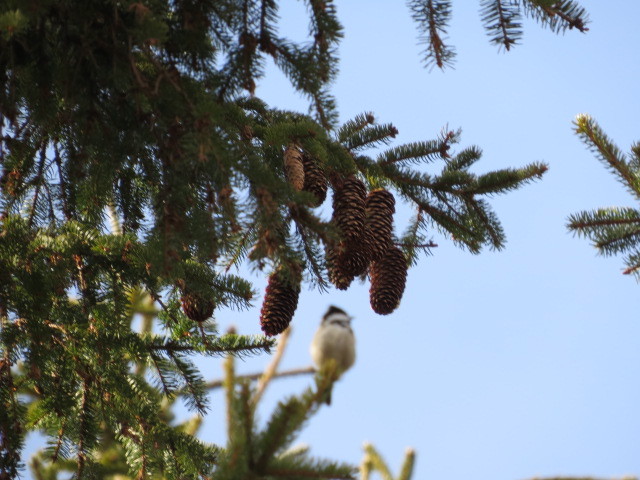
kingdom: Animalia
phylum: Chordata
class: Aves
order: Passeriformes
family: Paridae
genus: Periparus
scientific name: Periparus ater
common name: Coal tit
